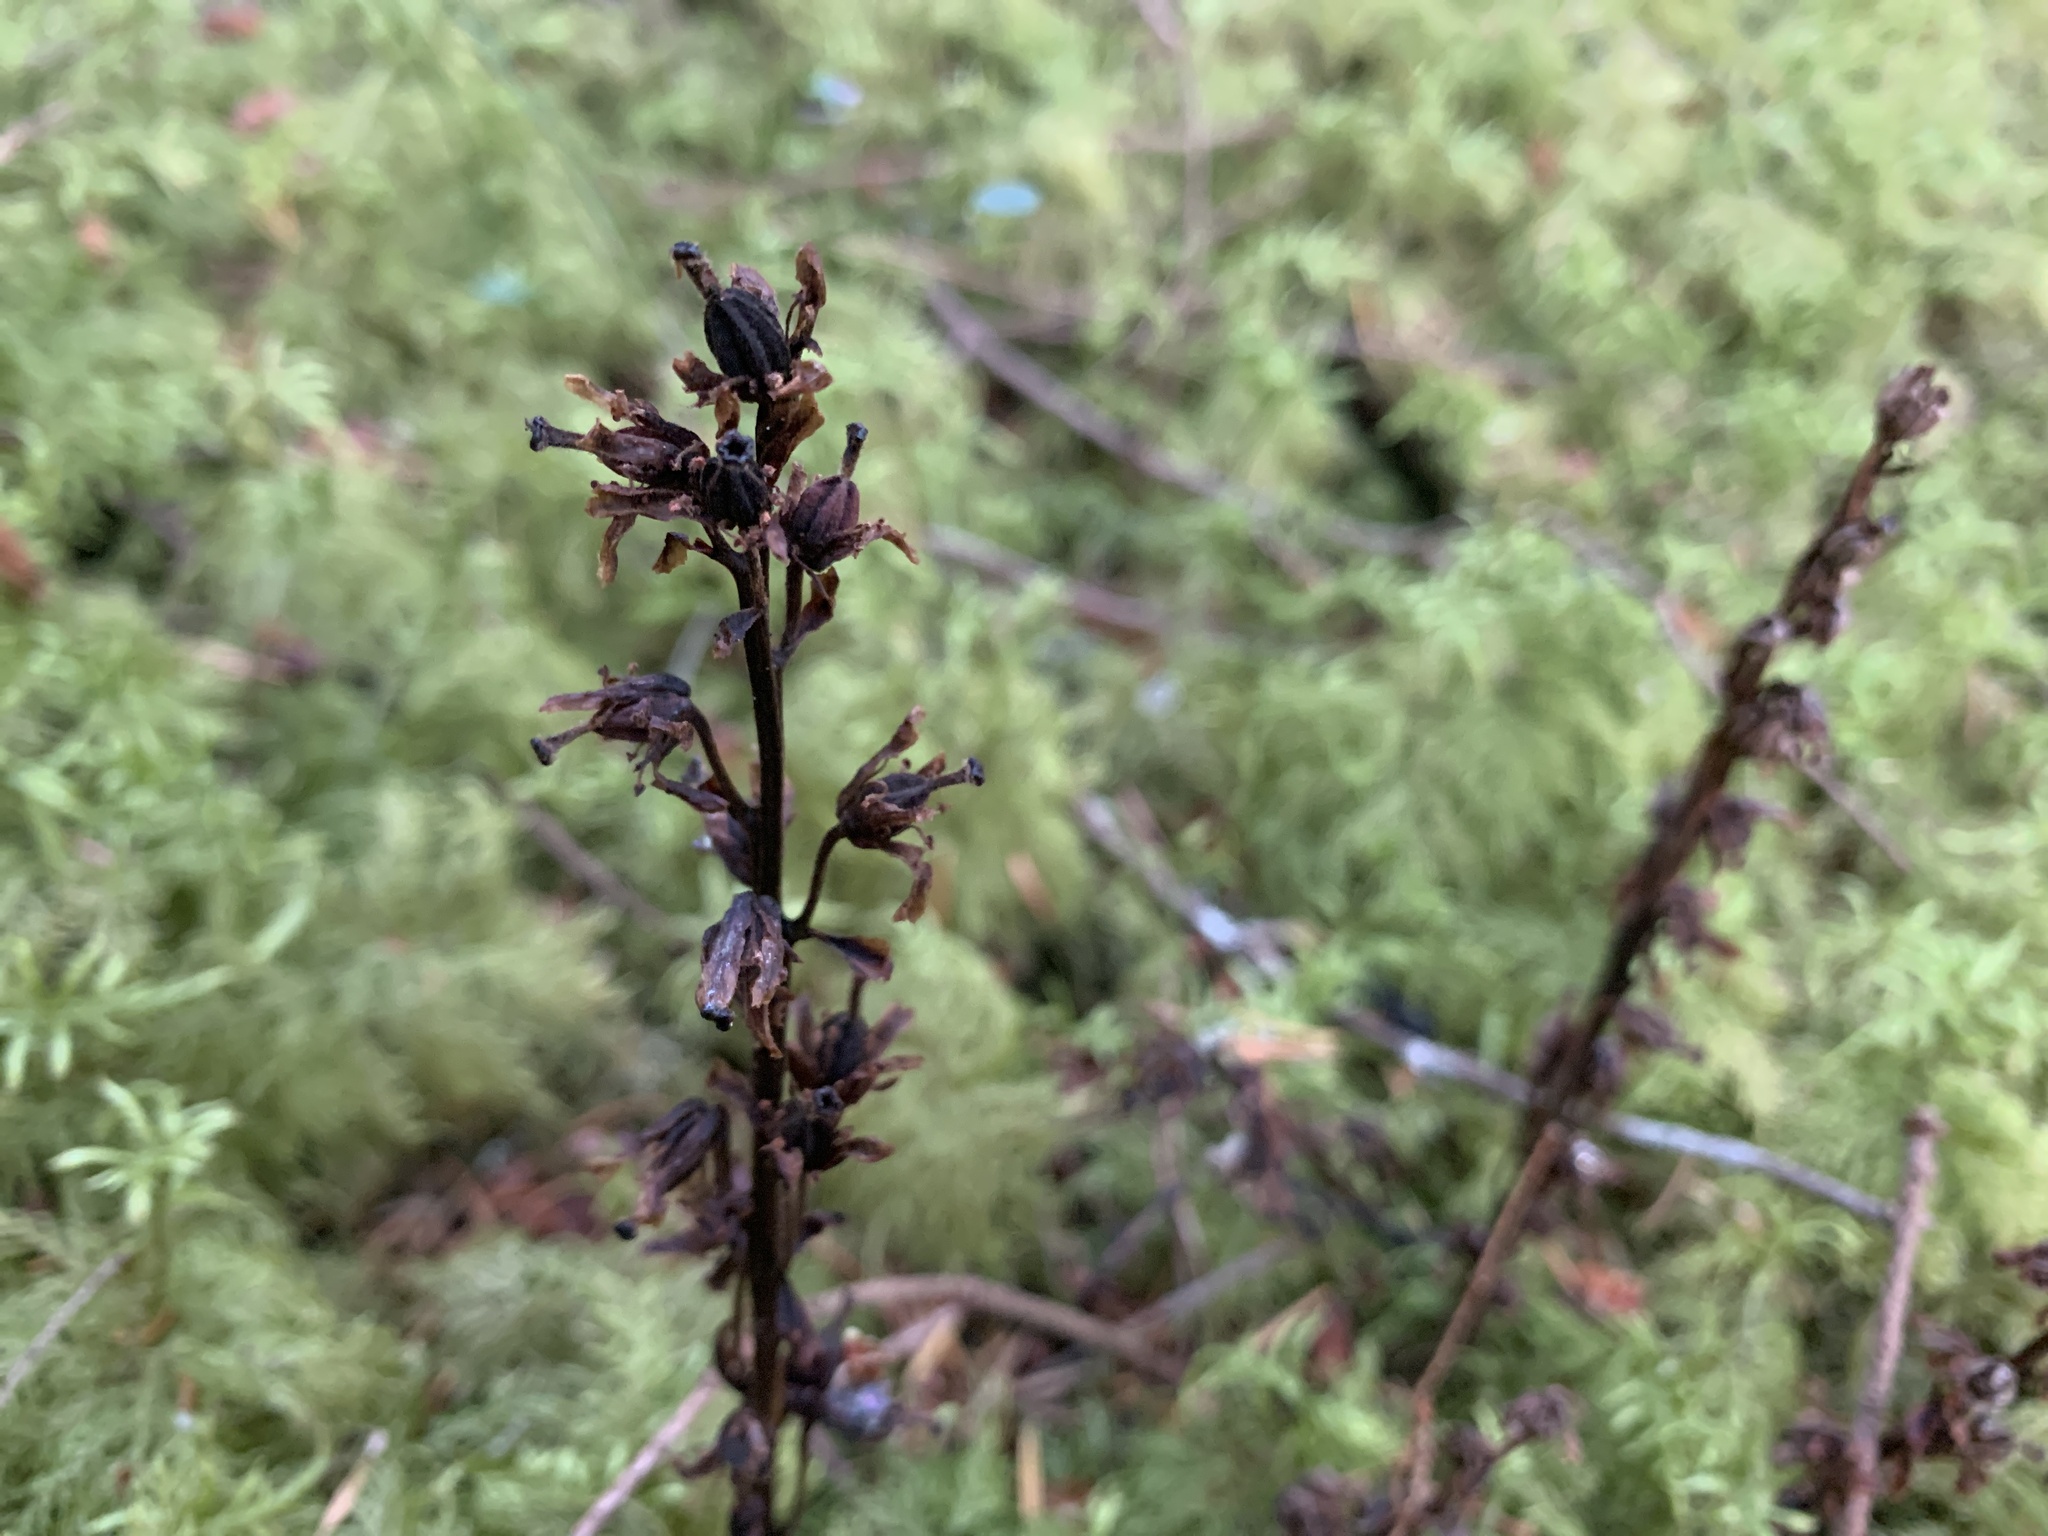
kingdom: Plantae
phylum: Tracheophyta
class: Magnoliopsida
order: Ericales
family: Ericaceae
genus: Hypopitys
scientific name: Hypopitys monotropa
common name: Yellow bird's-nest
